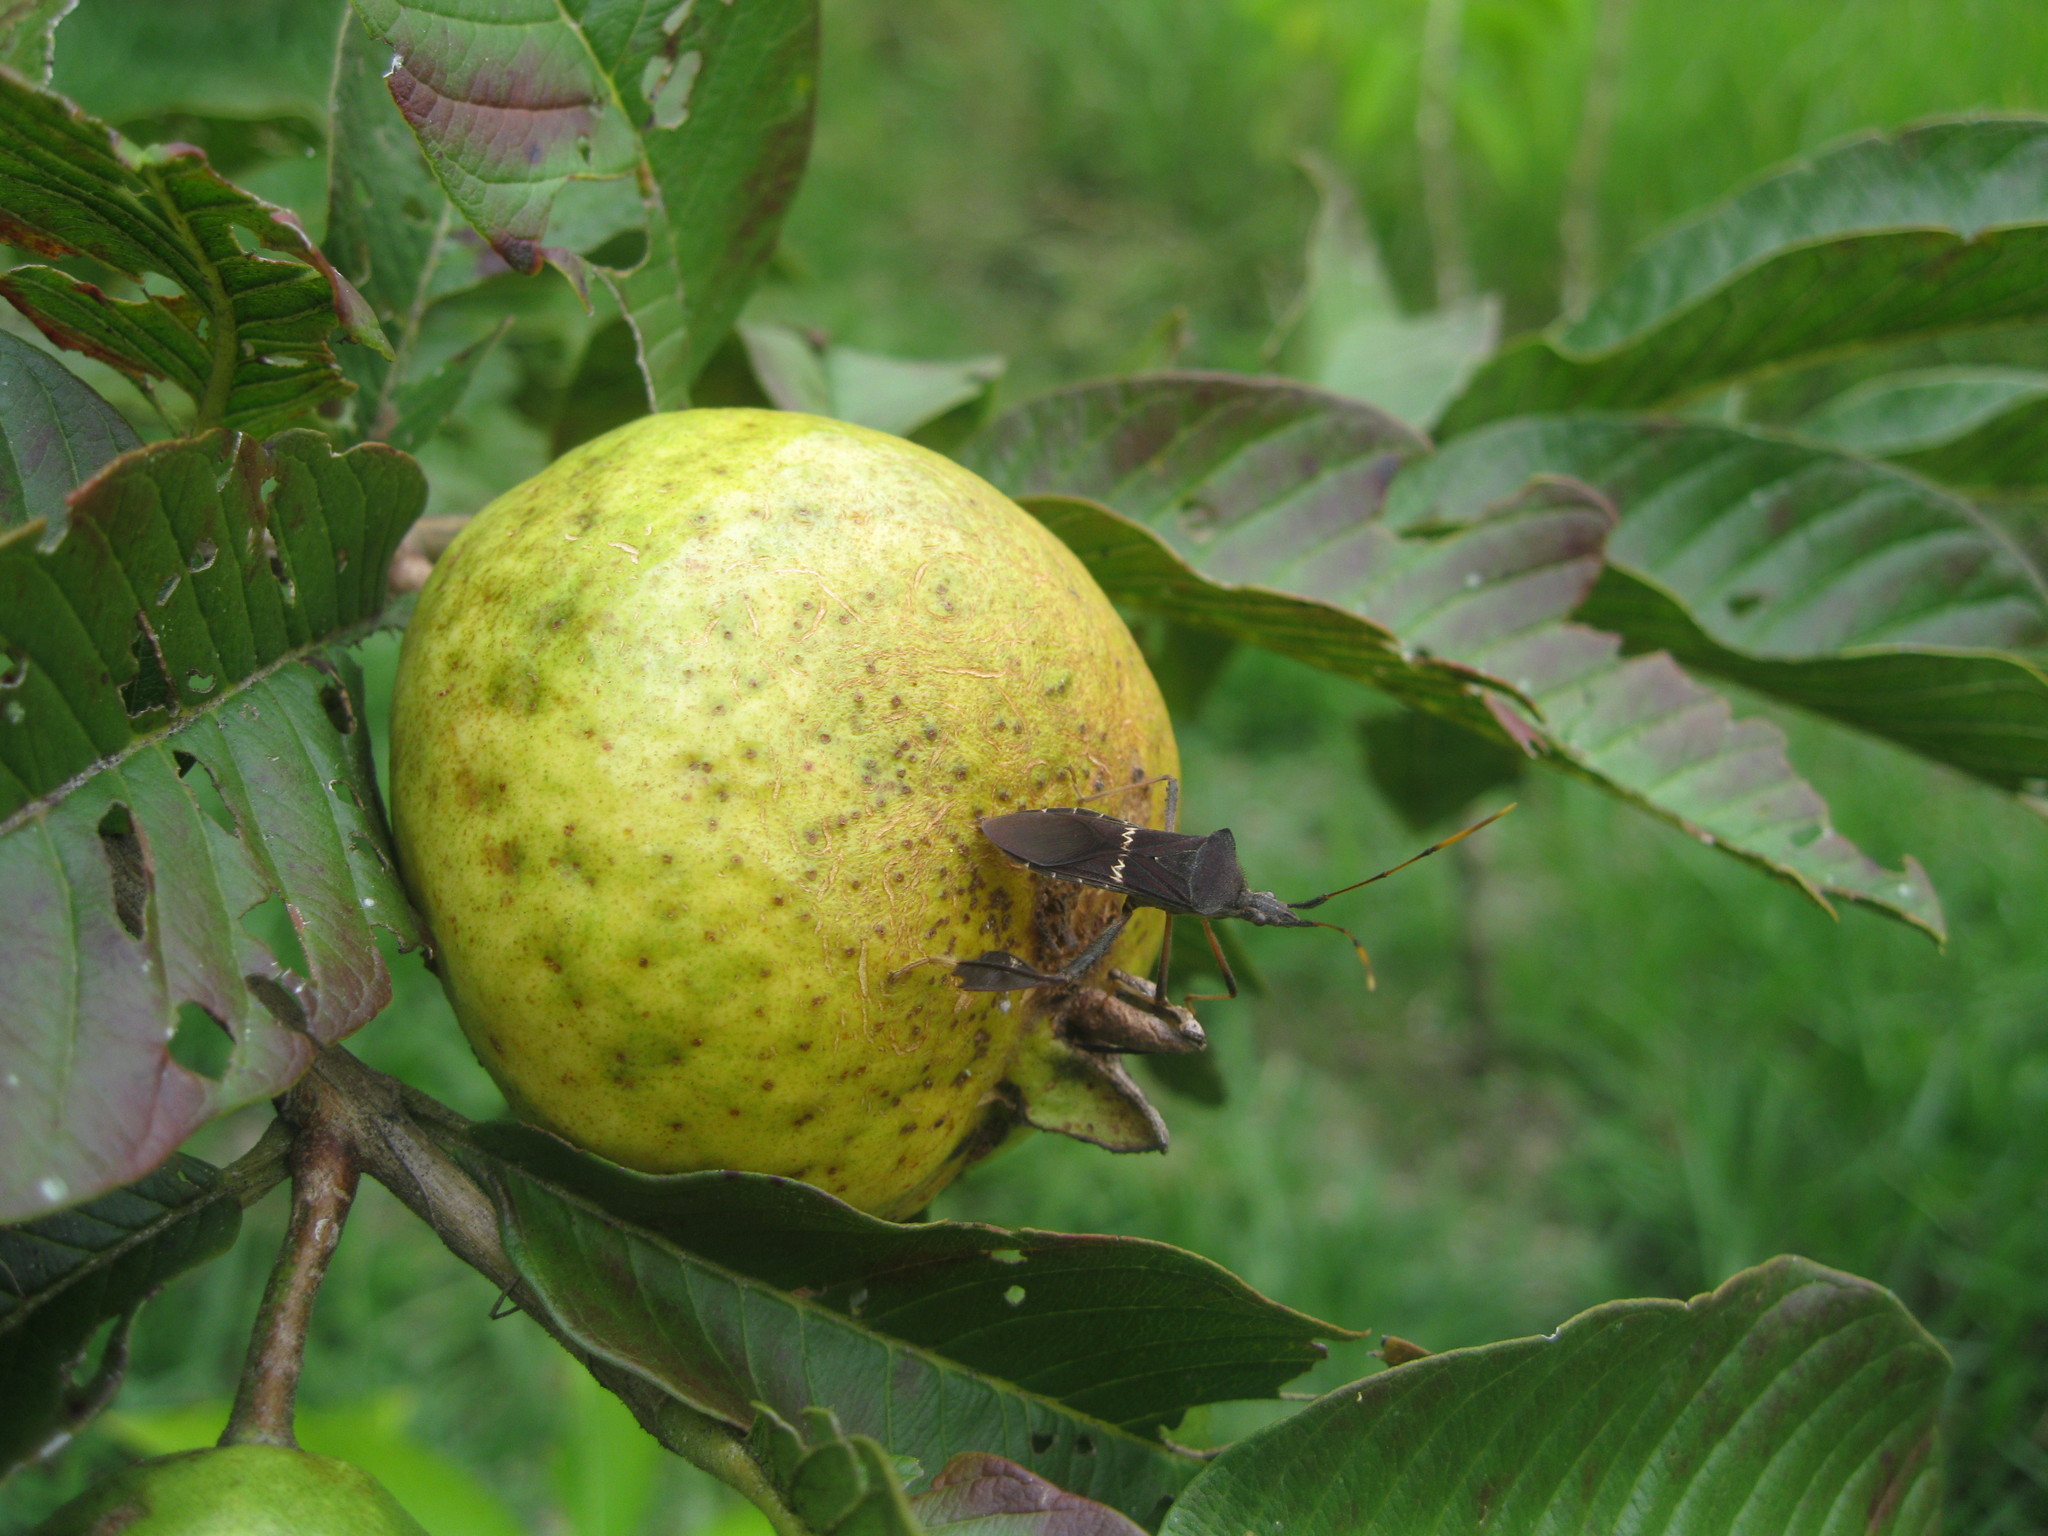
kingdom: Animalia
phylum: Arthropoda
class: Insecta
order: Hemiptera
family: Coreidae
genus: Leptoglossus
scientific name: Leptoglossus concolor
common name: Leaf-footed bug
